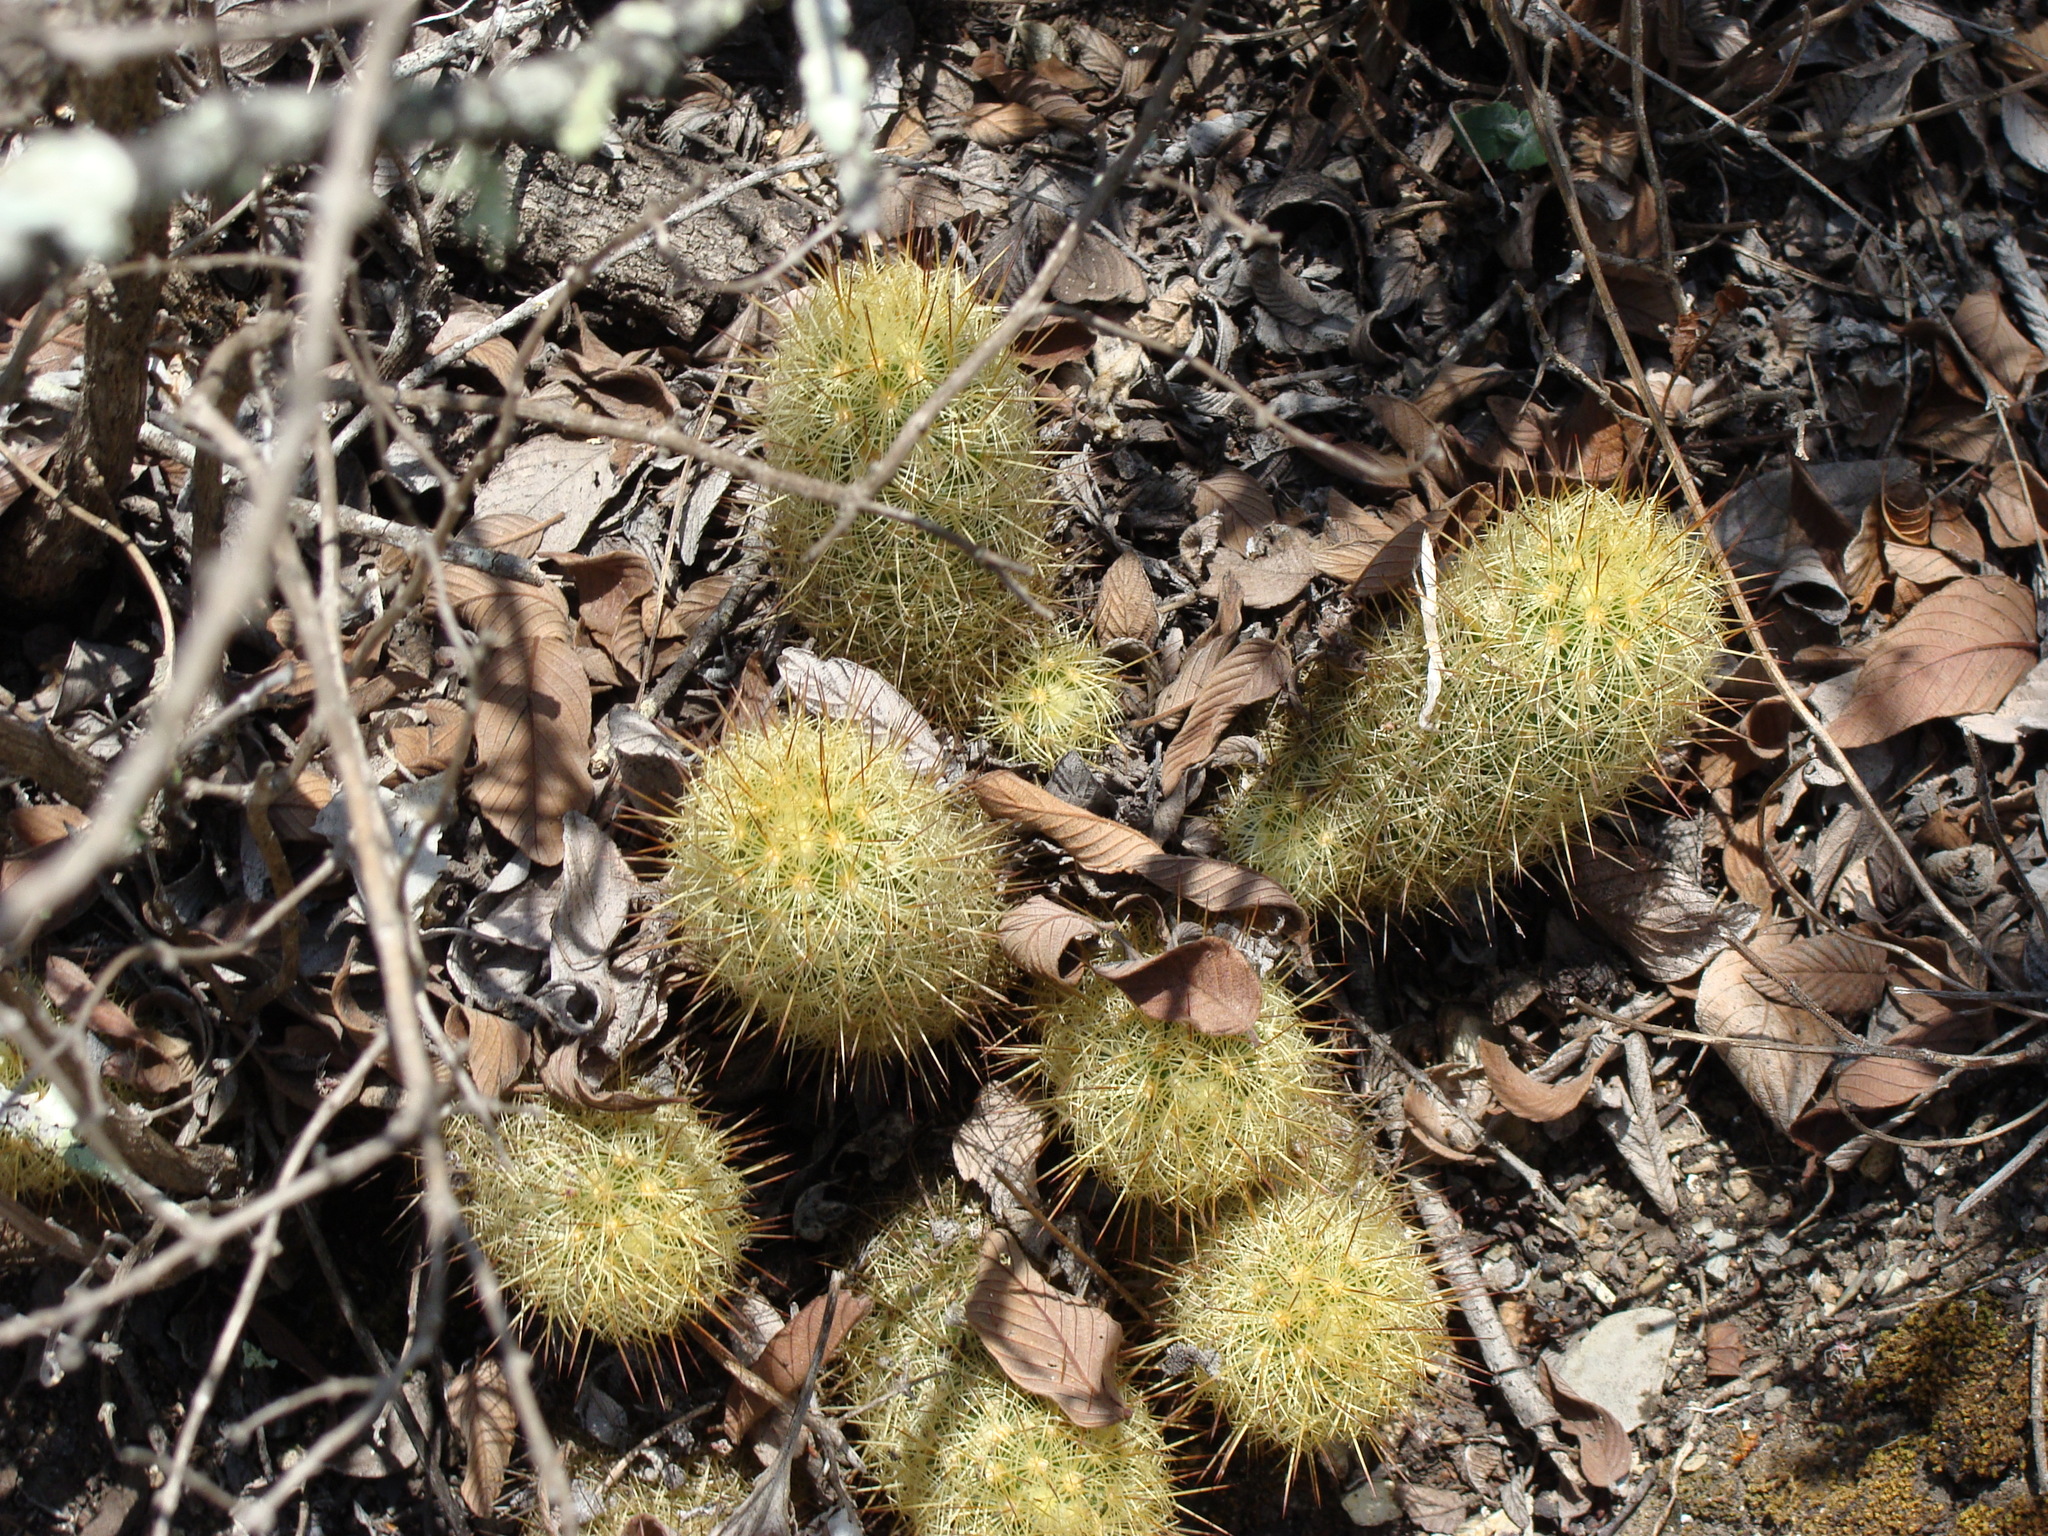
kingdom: Plantae
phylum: Tracheophyta
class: Magnoliopsida
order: Caryophyllales
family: Cactaceae
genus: Mammillaria
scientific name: Mammillaria elongata
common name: Golden star cactus
